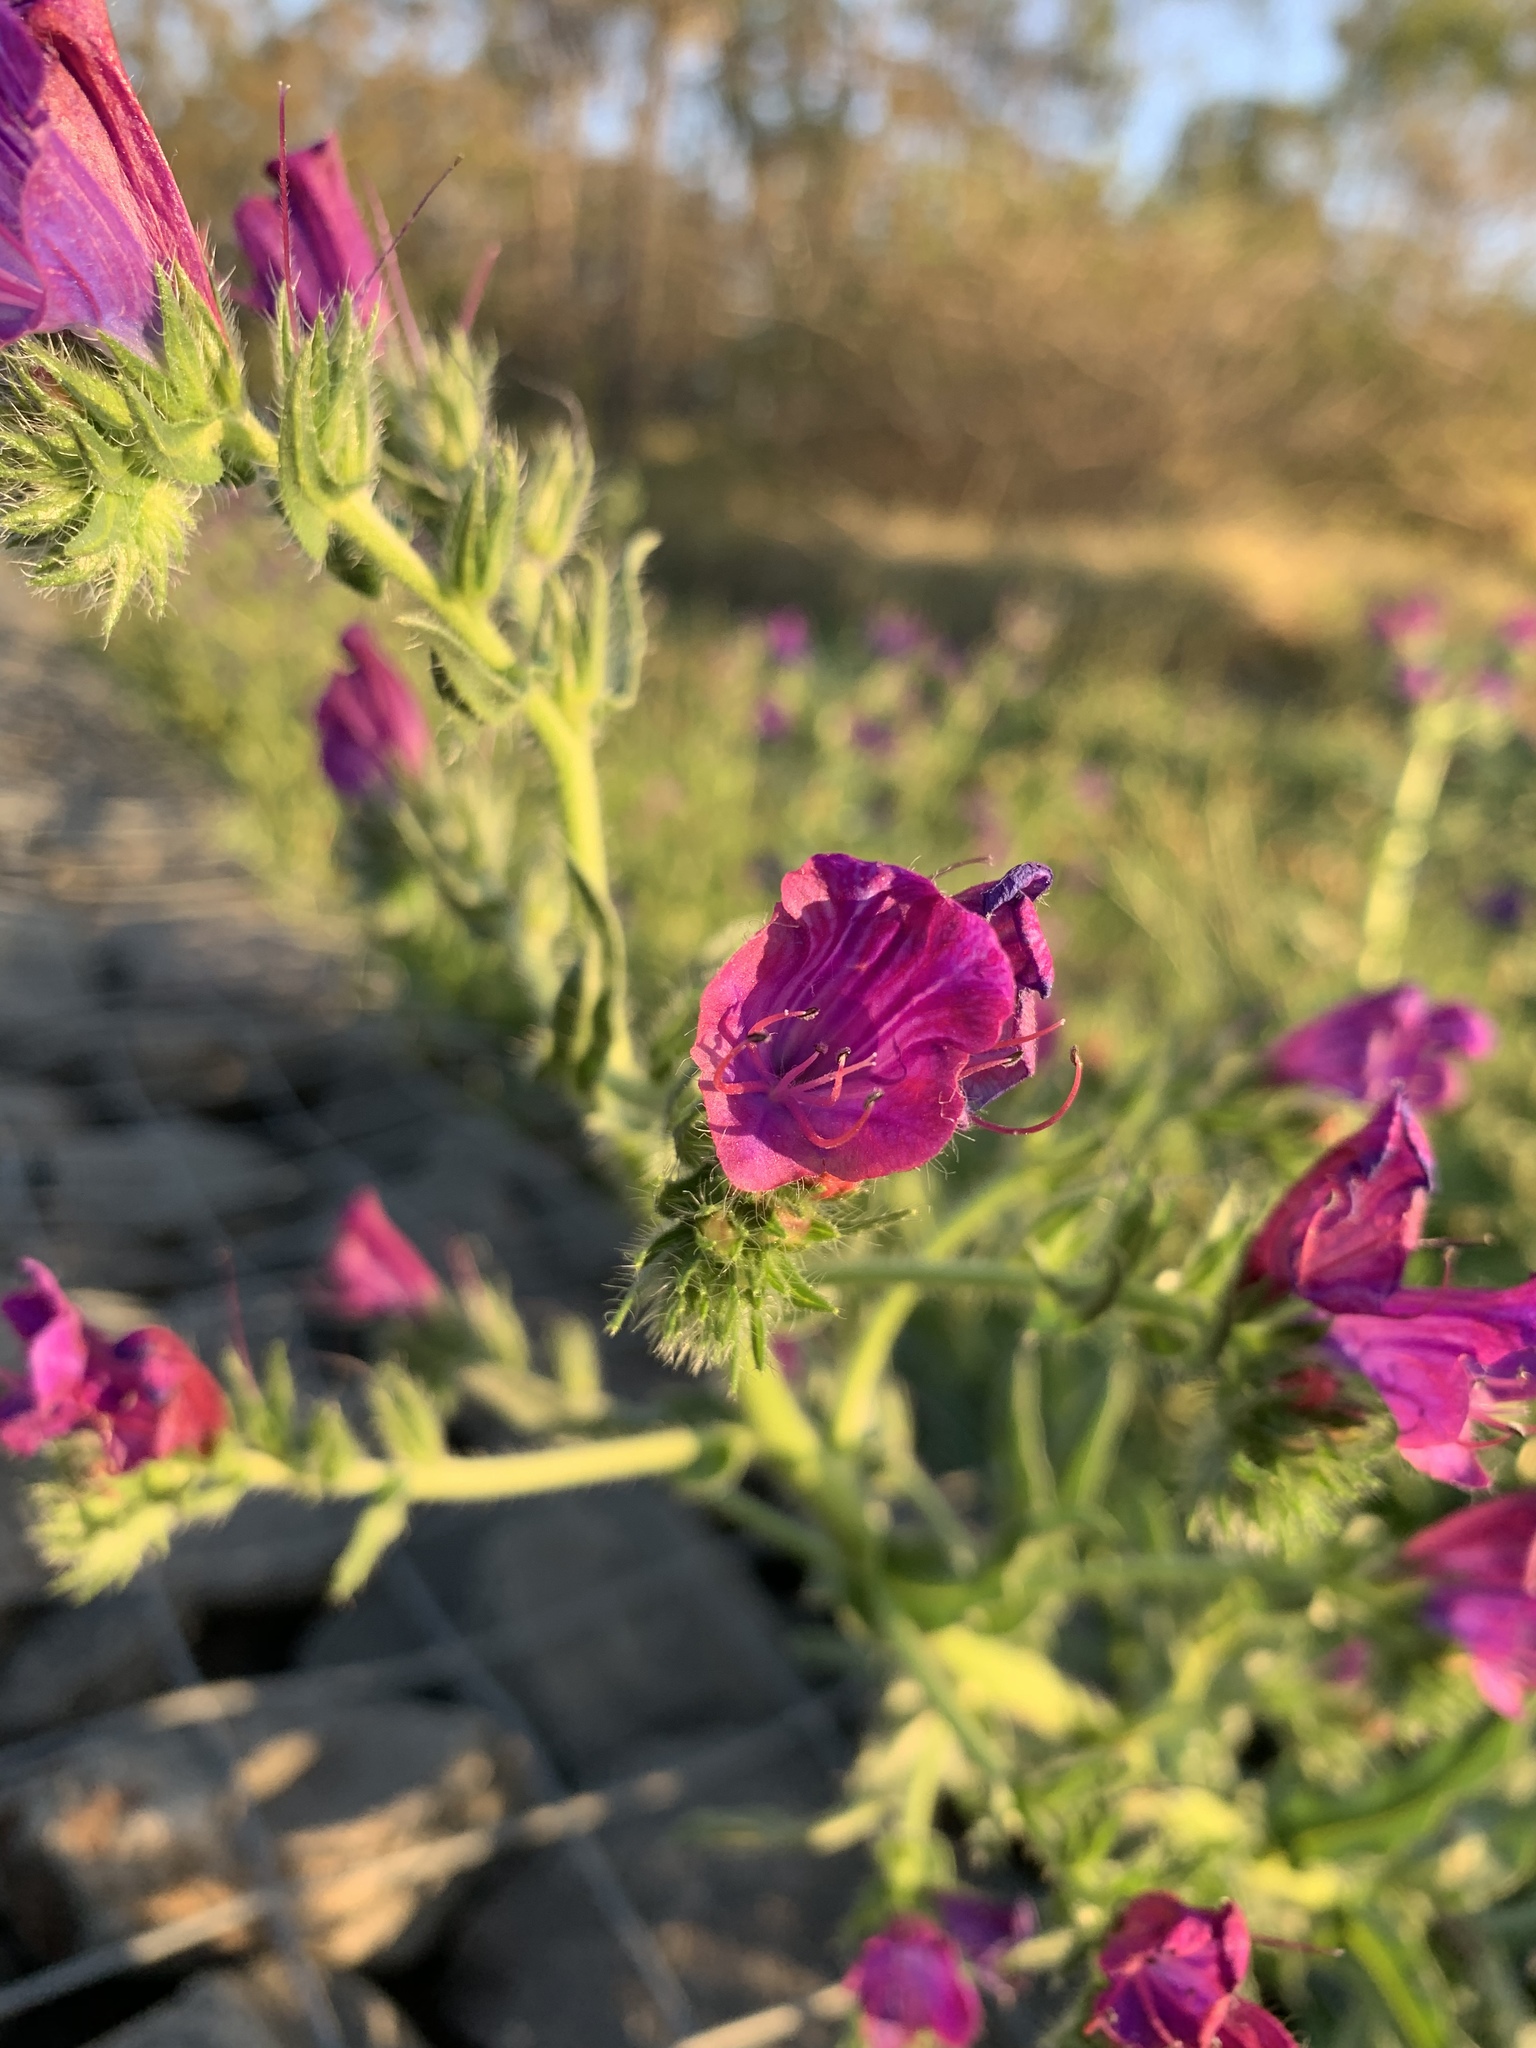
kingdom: Plantae
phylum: Tracheophyta
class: Magnoliopsida
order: Boraginales
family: Boraginaceae
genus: Echium
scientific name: Echium plantagineum
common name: Purple viper's-bugloss
